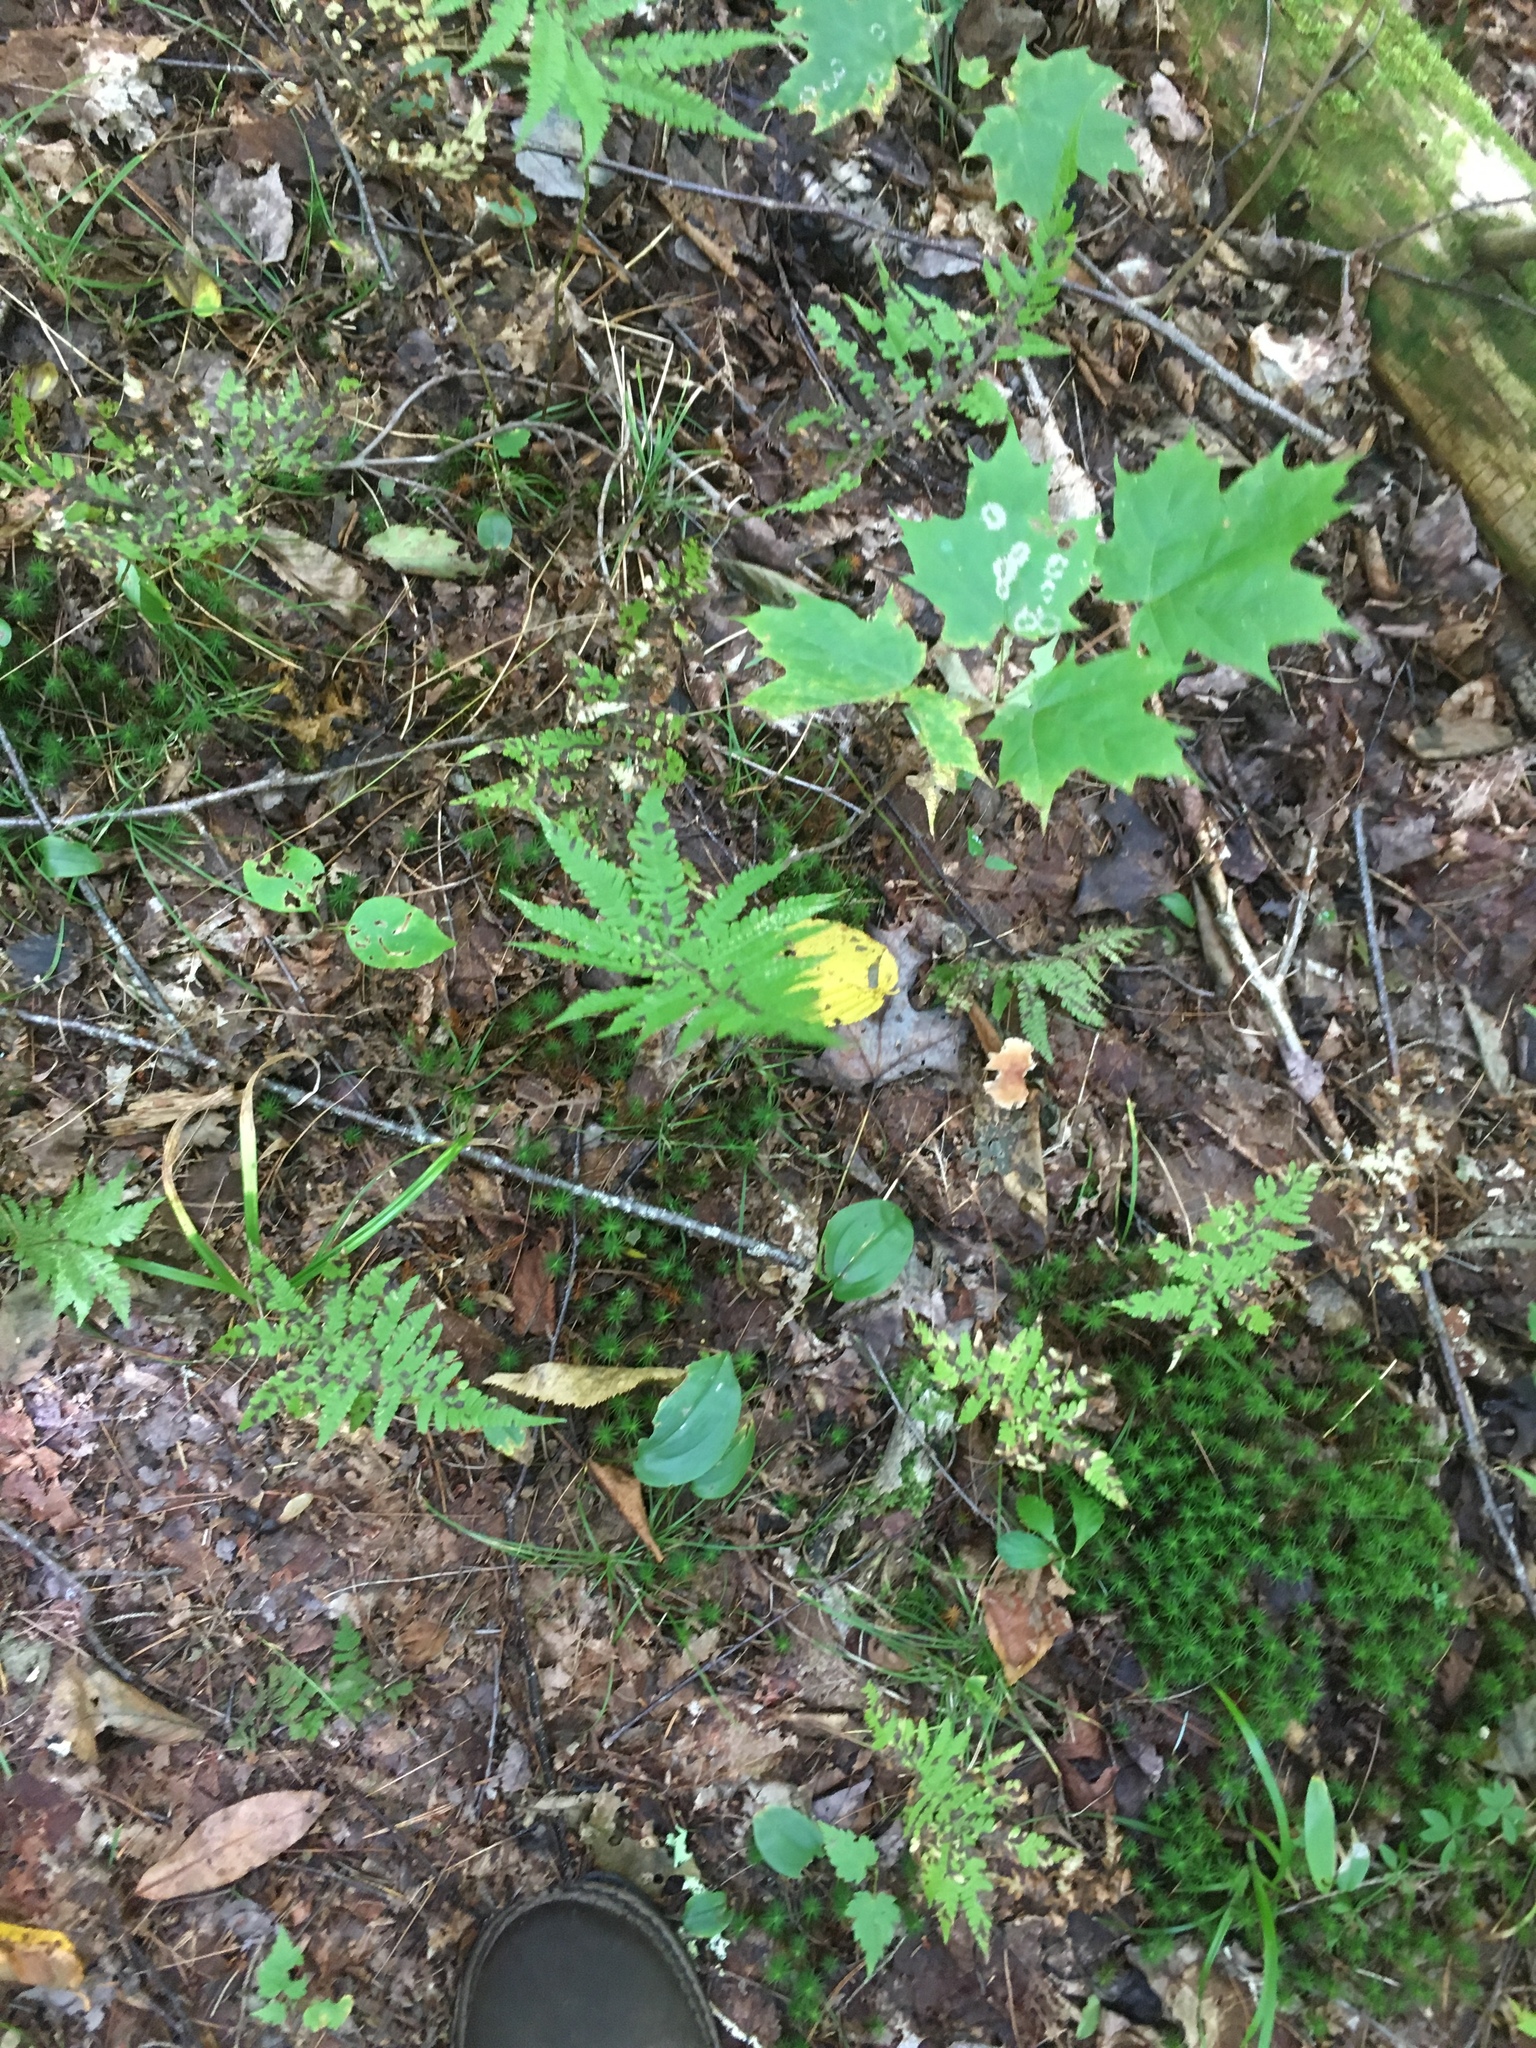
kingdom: Plantae
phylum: Tracheophyta
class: Polypodiopsida
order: Polypodiales
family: Thelypteridaceae
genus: Phegopteris
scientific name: Phegopteris connectilis
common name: Beech fern
